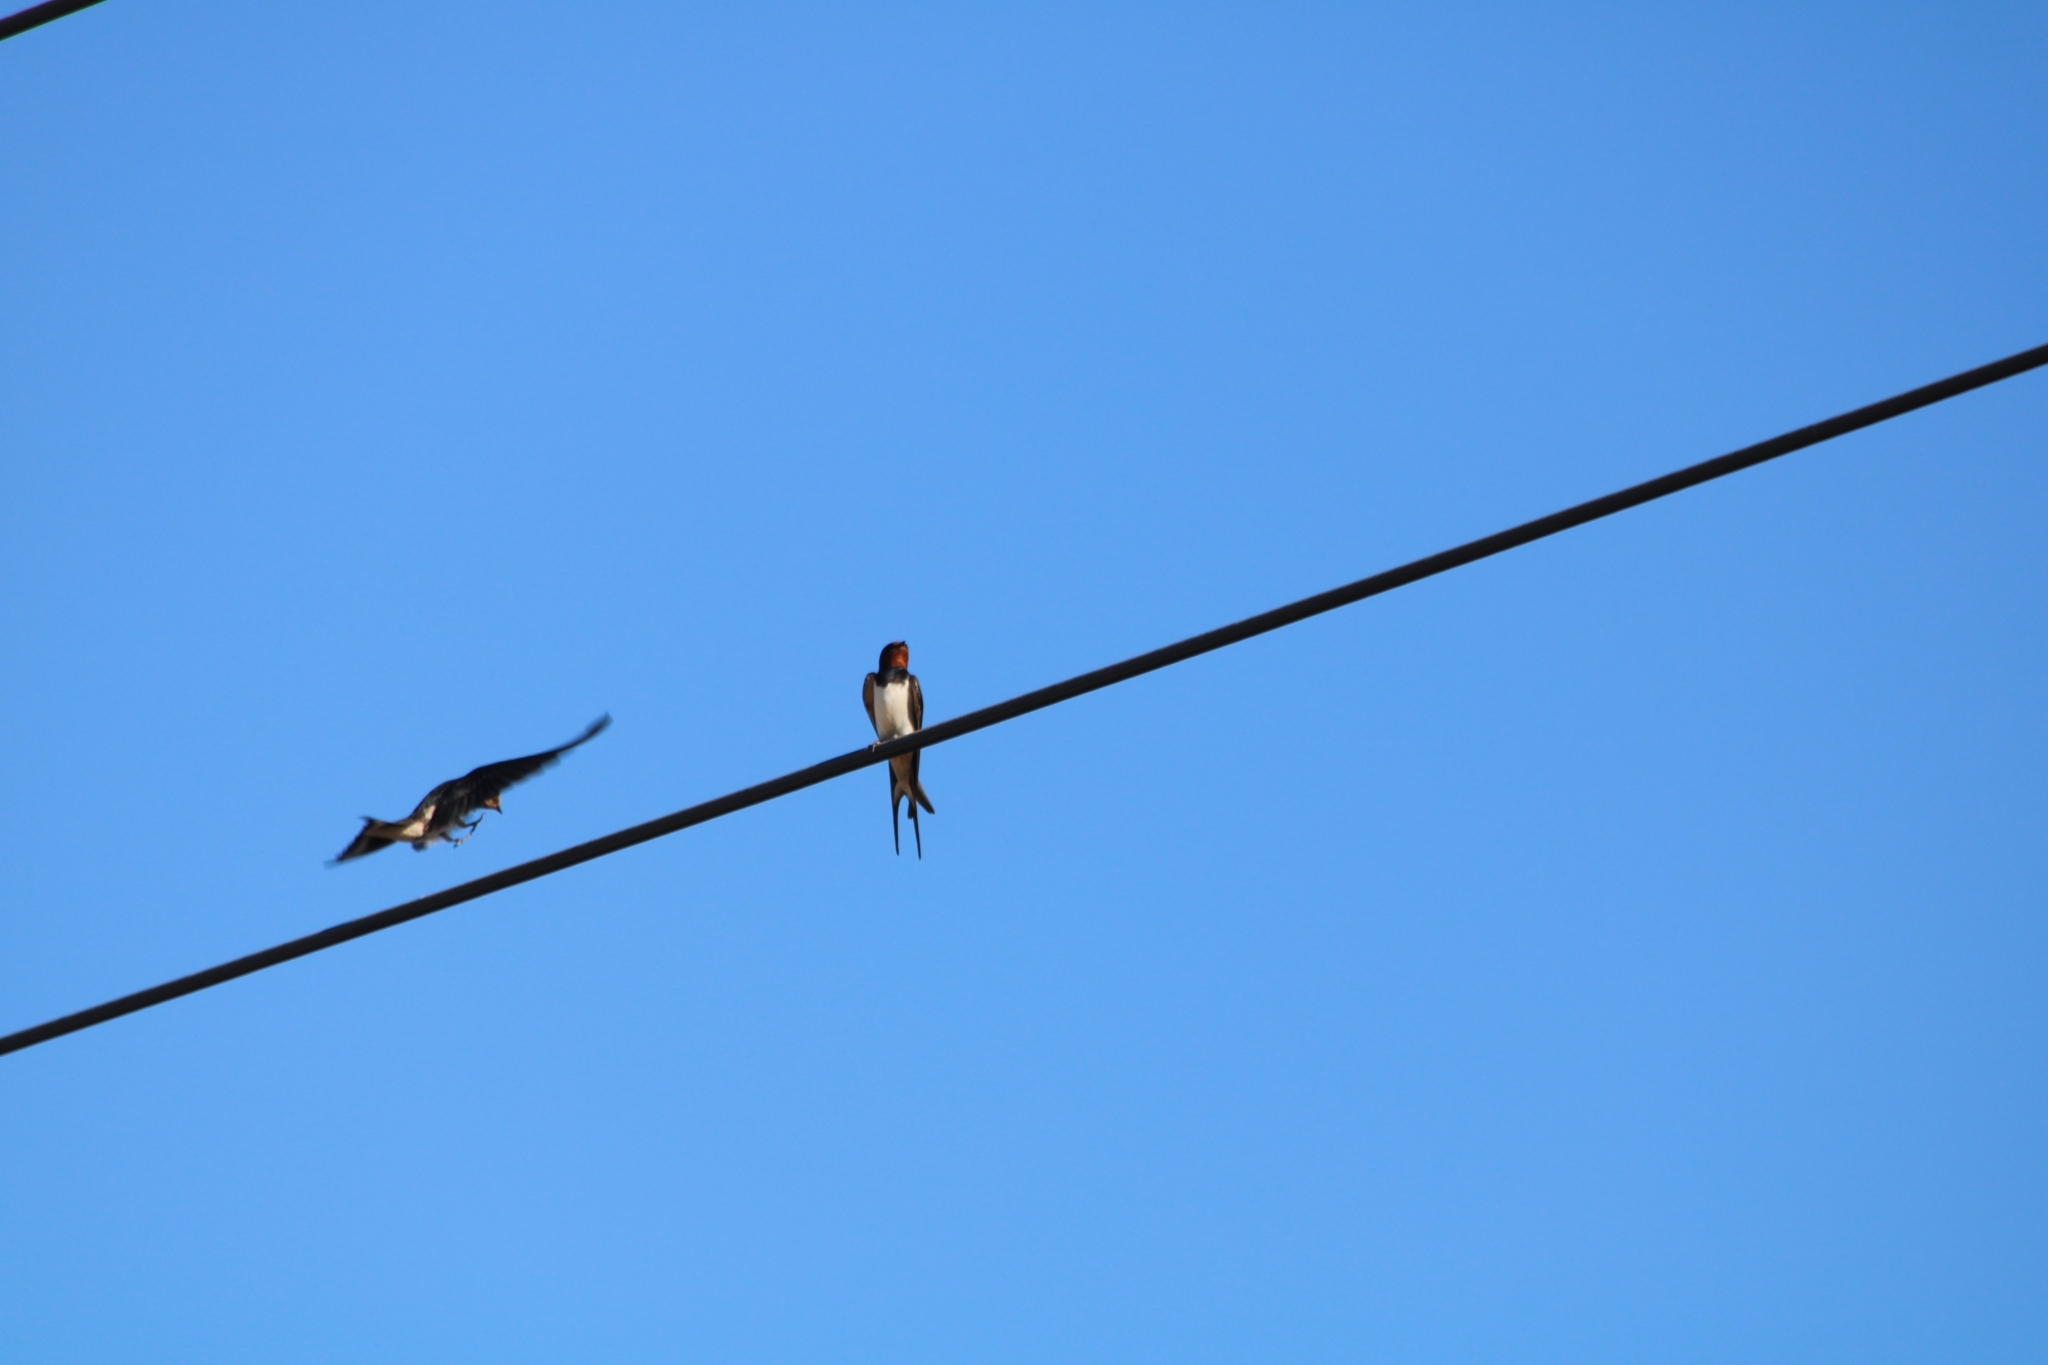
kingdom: Animalia
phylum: Chordata
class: Aves
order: Passeriformes
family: Hirundinidae
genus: Hirundo
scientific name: Hirundo rustica
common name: Barn swallow
